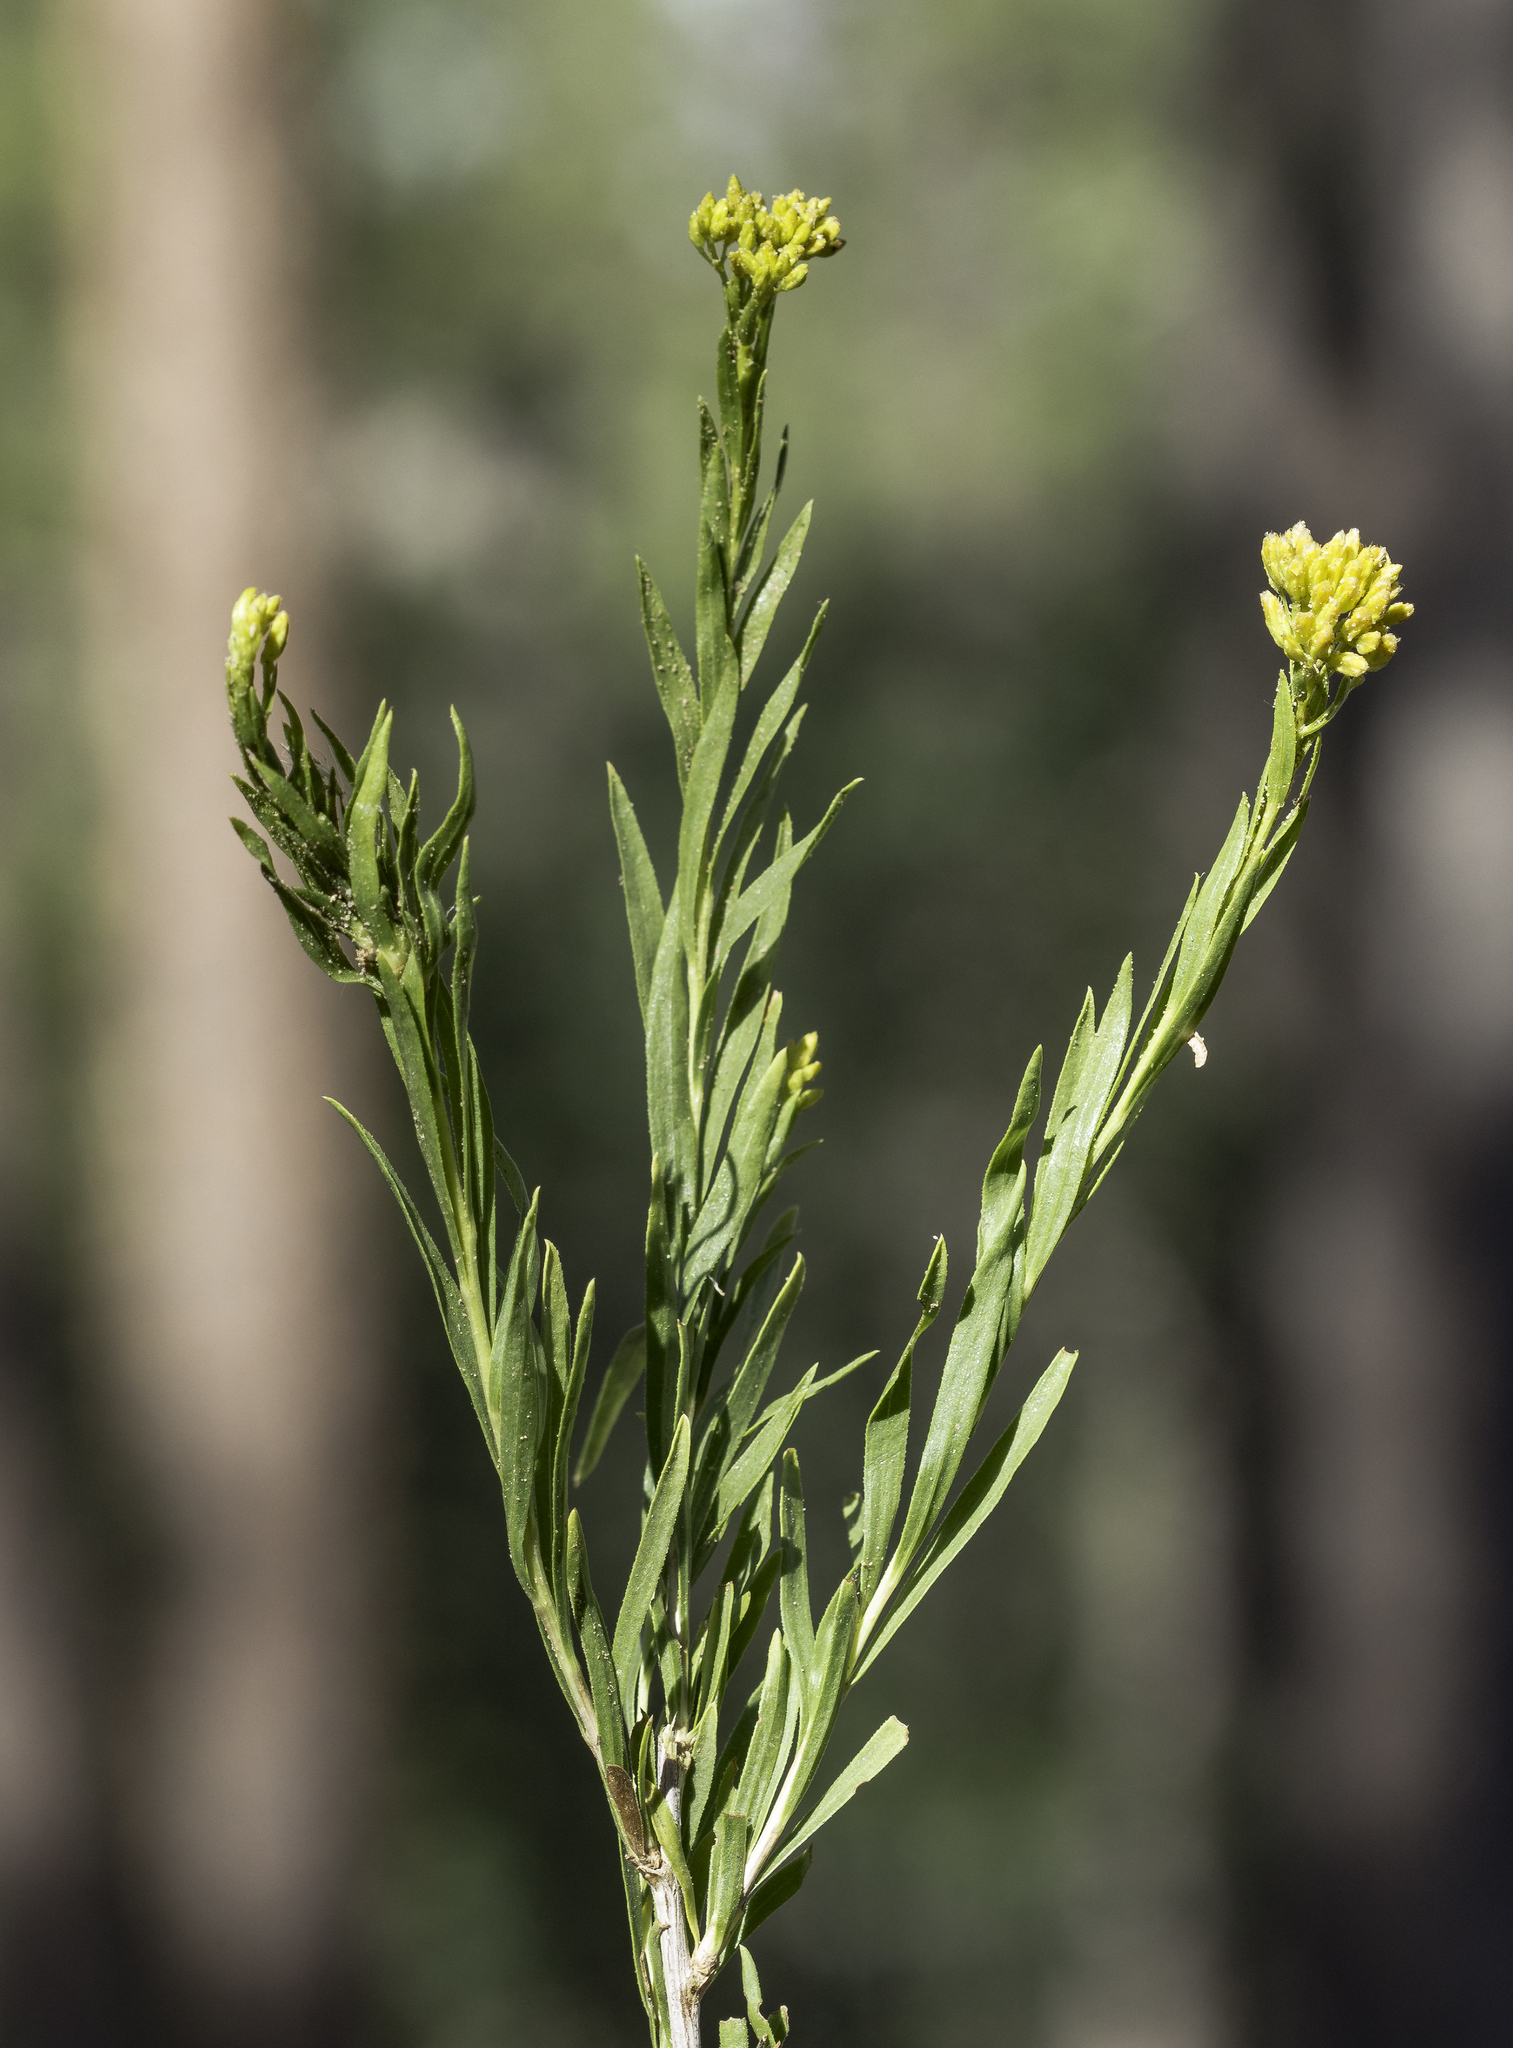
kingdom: Plantae
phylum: Tracheophyta
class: Magnoliopsida
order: Asterales
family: Asteraceae
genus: Lorandersonia
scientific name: Lorandersonia baileyi
